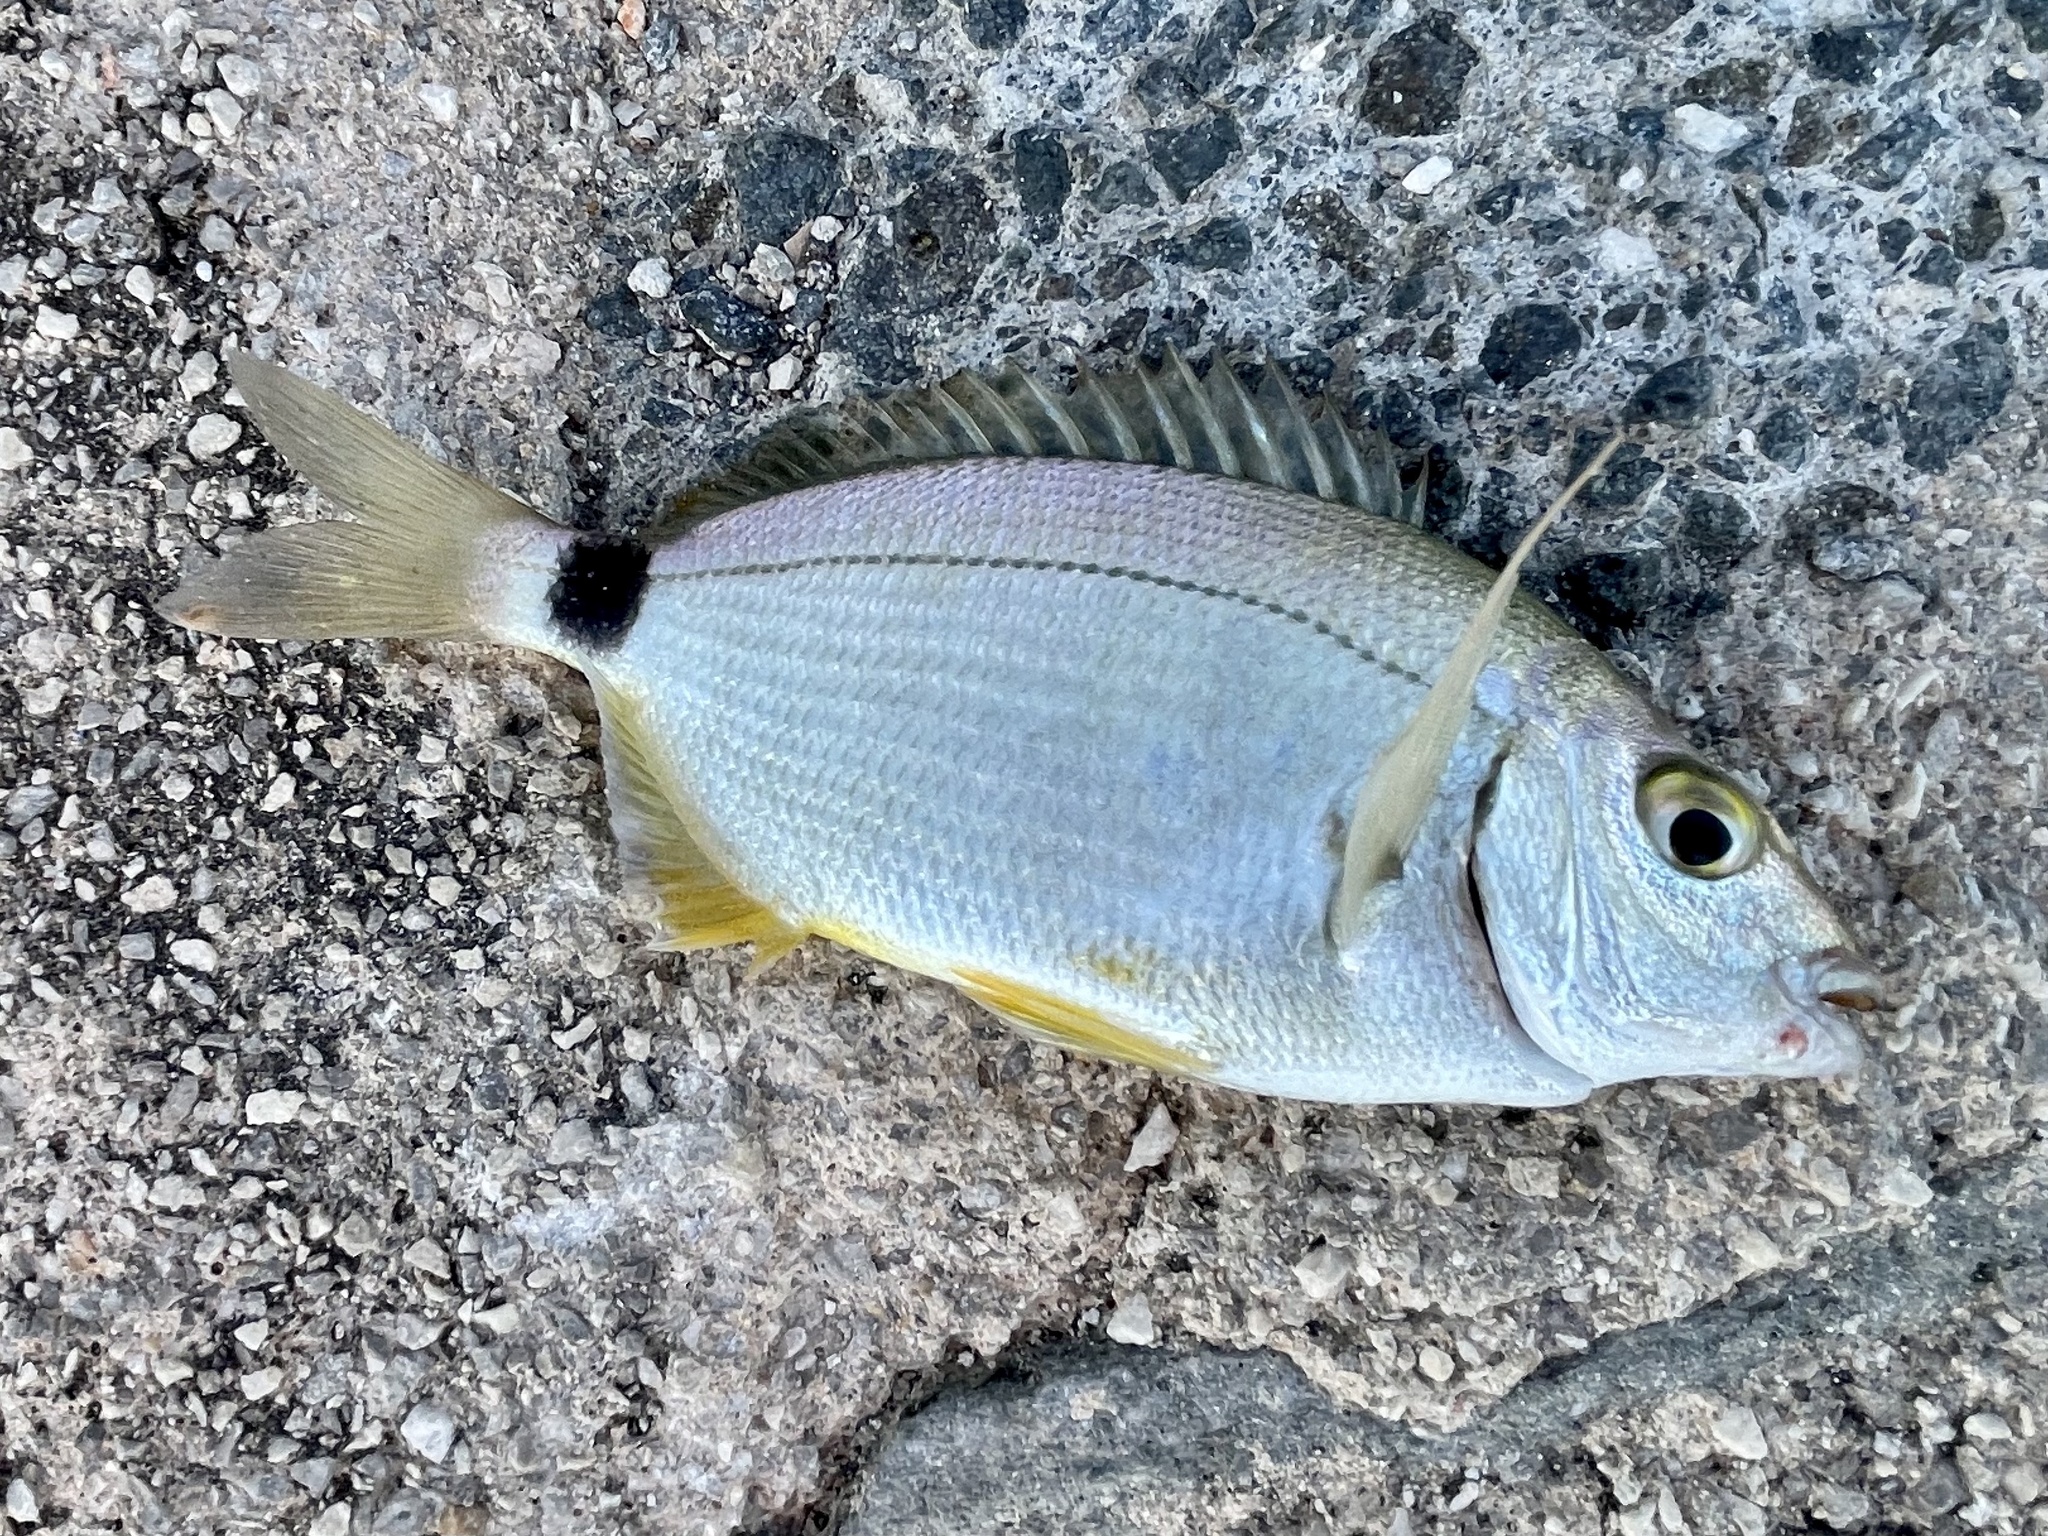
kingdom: Animalia
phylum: Chordata
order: Perciformes
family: Sparidae
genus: Diplodus
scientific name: Diplodus annularis
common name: Annular seabream
